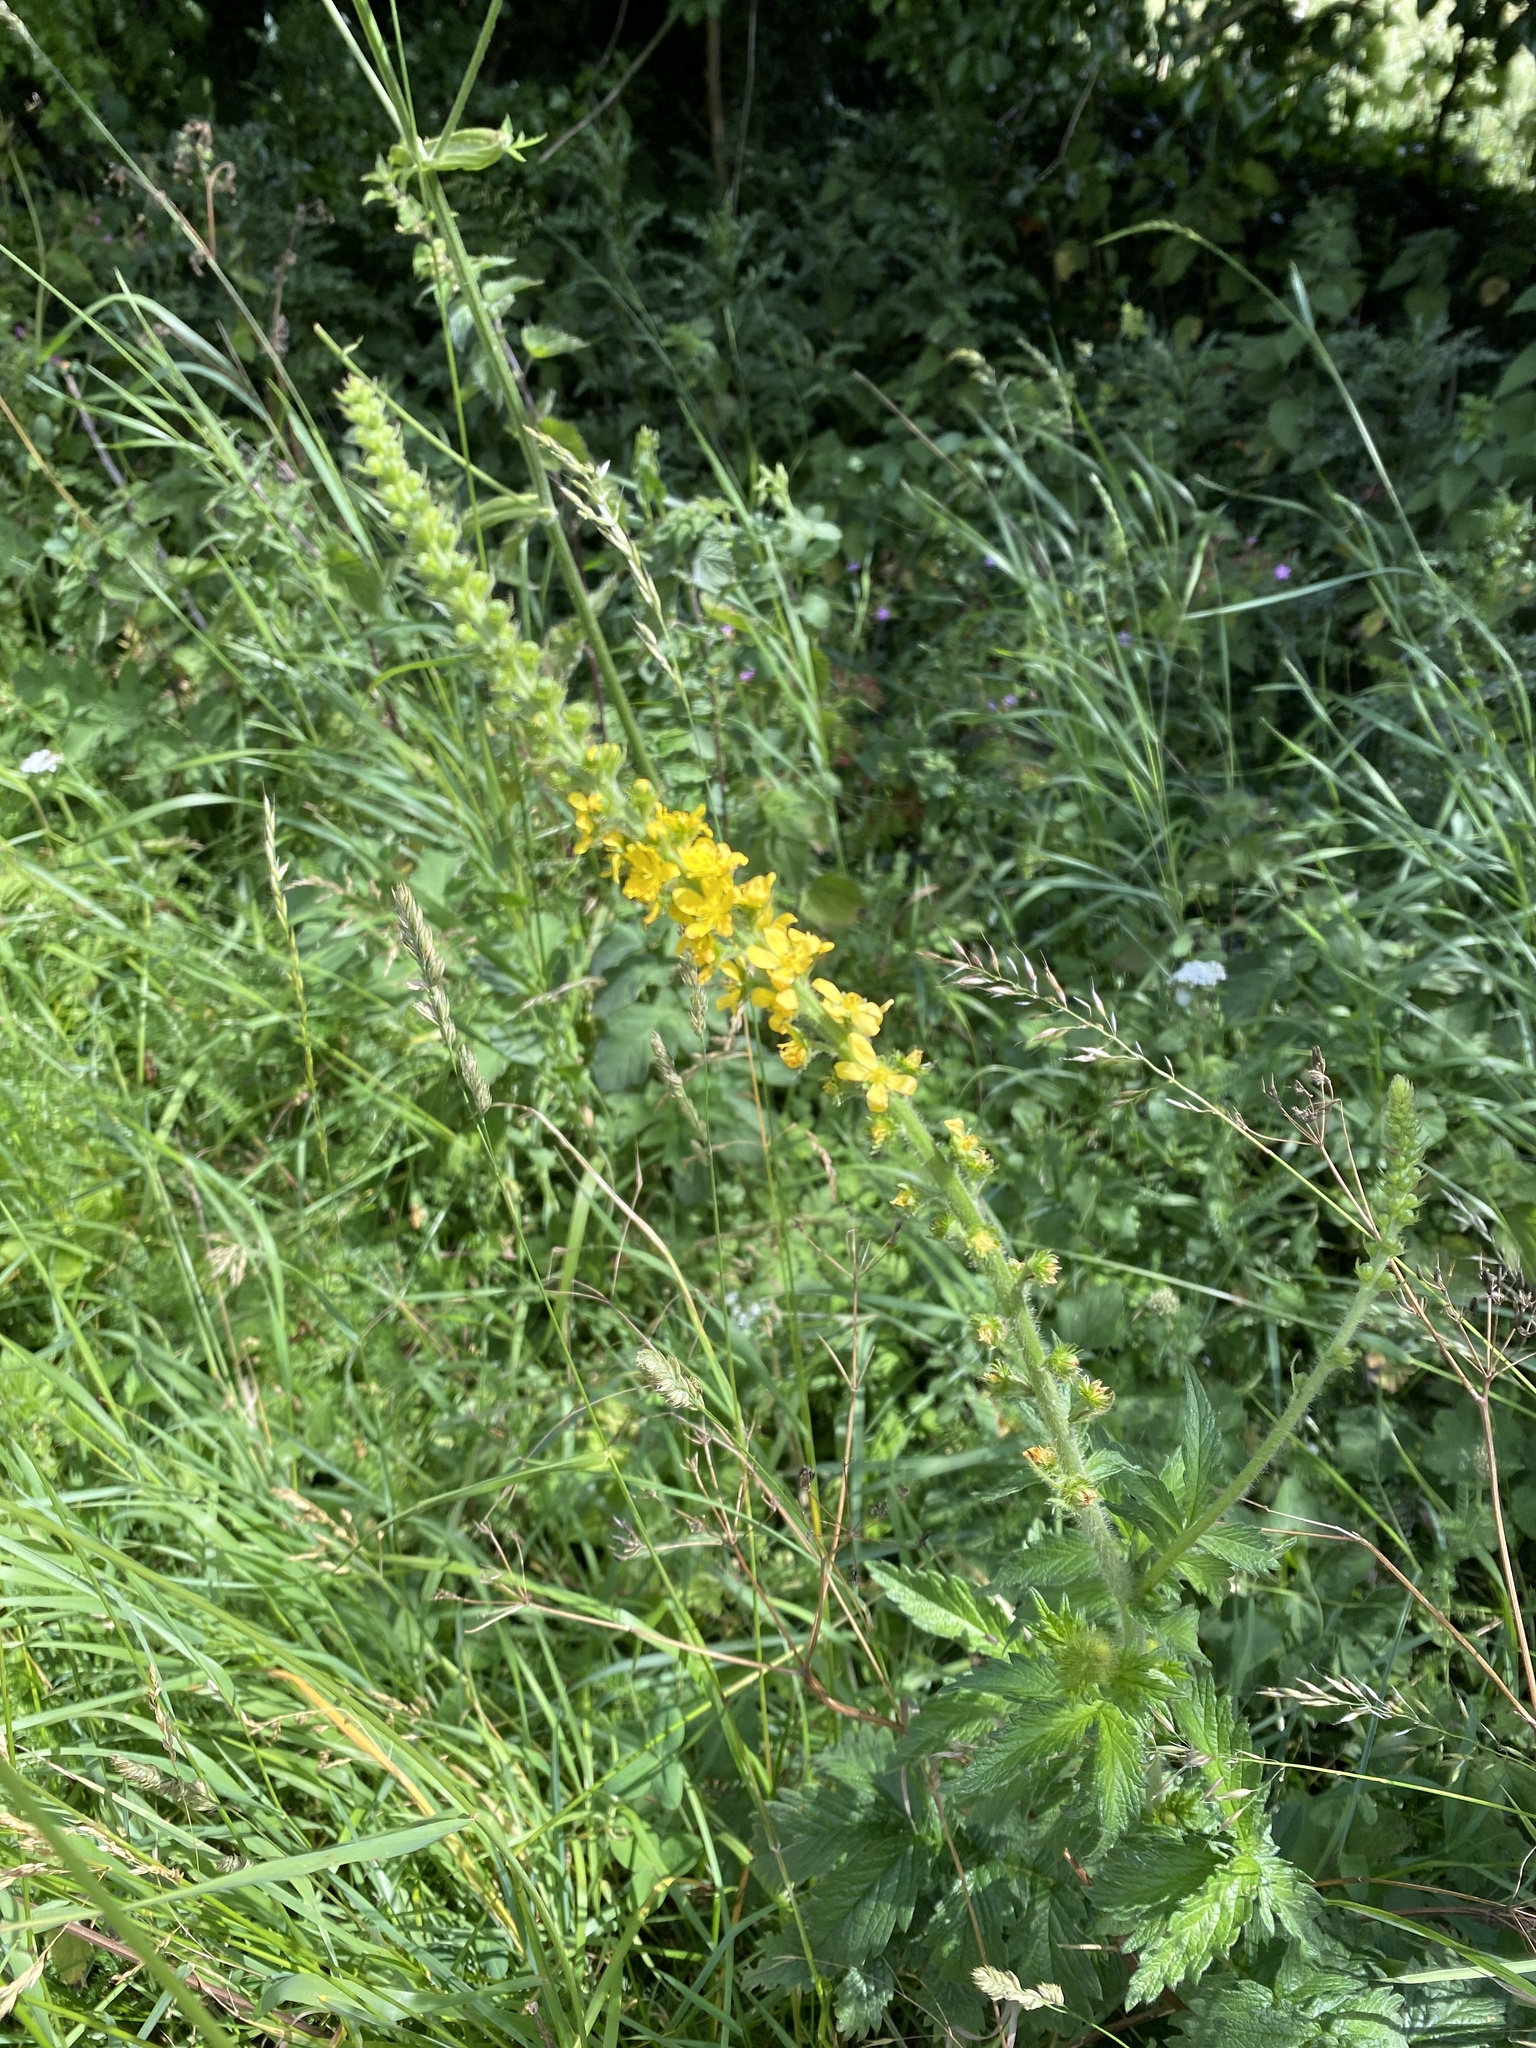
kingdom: Plantae
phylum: Tracheophyta
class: Magnoliopsida
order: Rosales
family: Rosaceae
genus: Agrimonia
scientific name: Agrimonia eupatoria
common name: Agrimony
